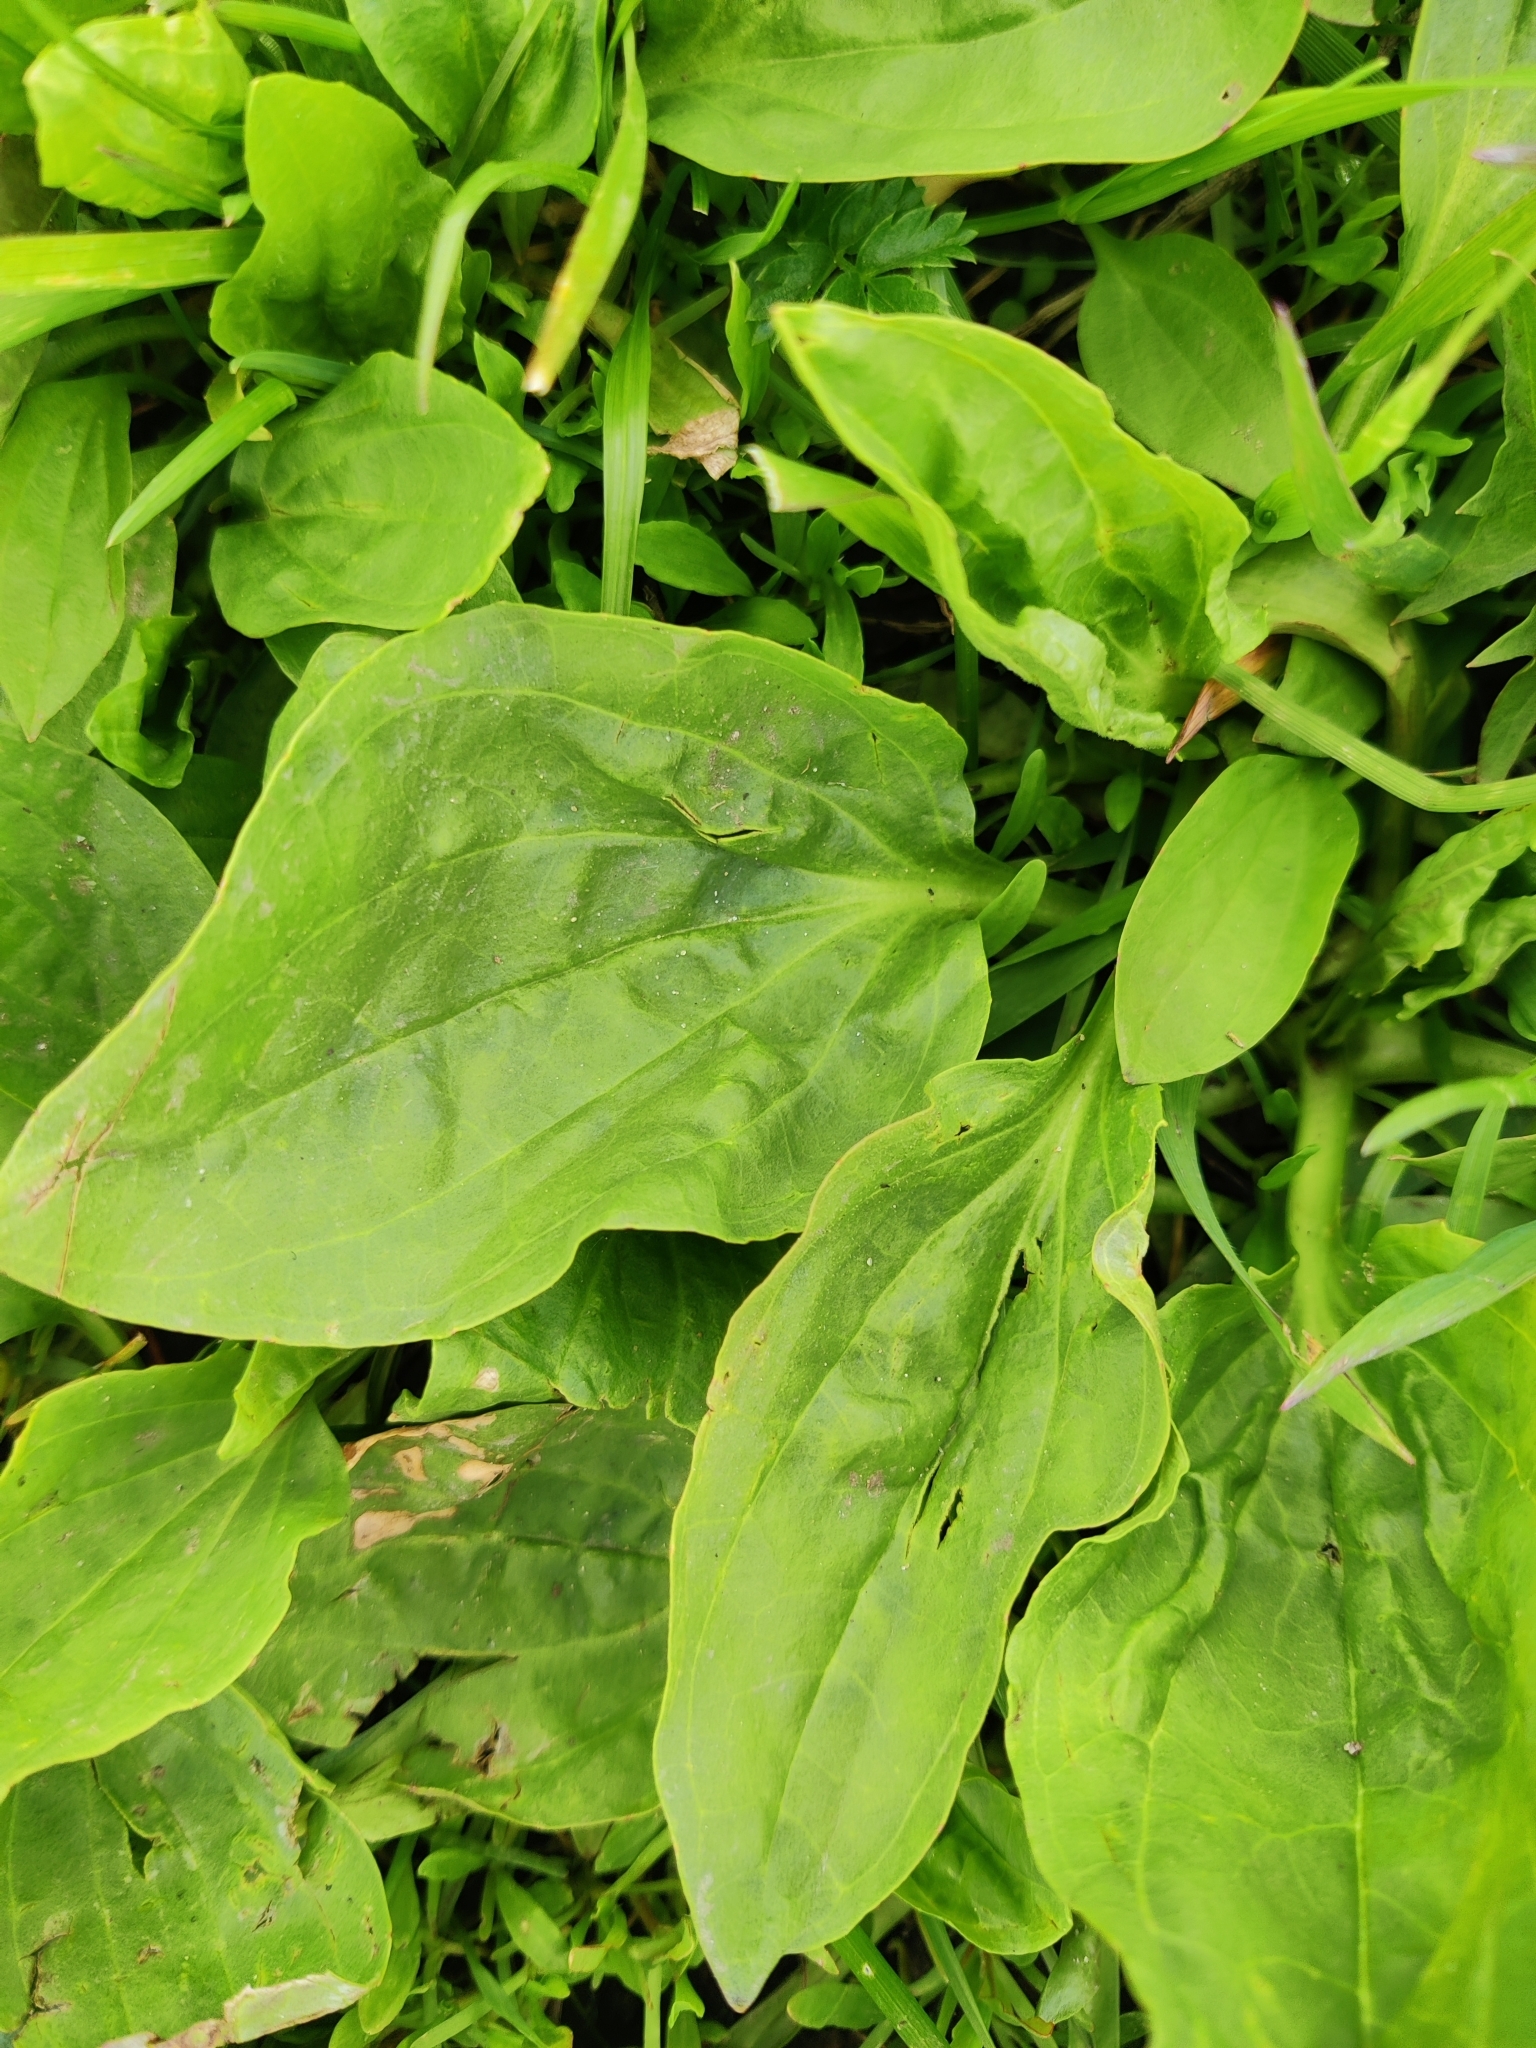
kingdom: Plantae
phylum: Tracheophyta
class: Magnoliopsida
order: Lamiales
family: Plantaginaceae
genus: Plantago
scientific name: Plantago major
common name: Common plantain
